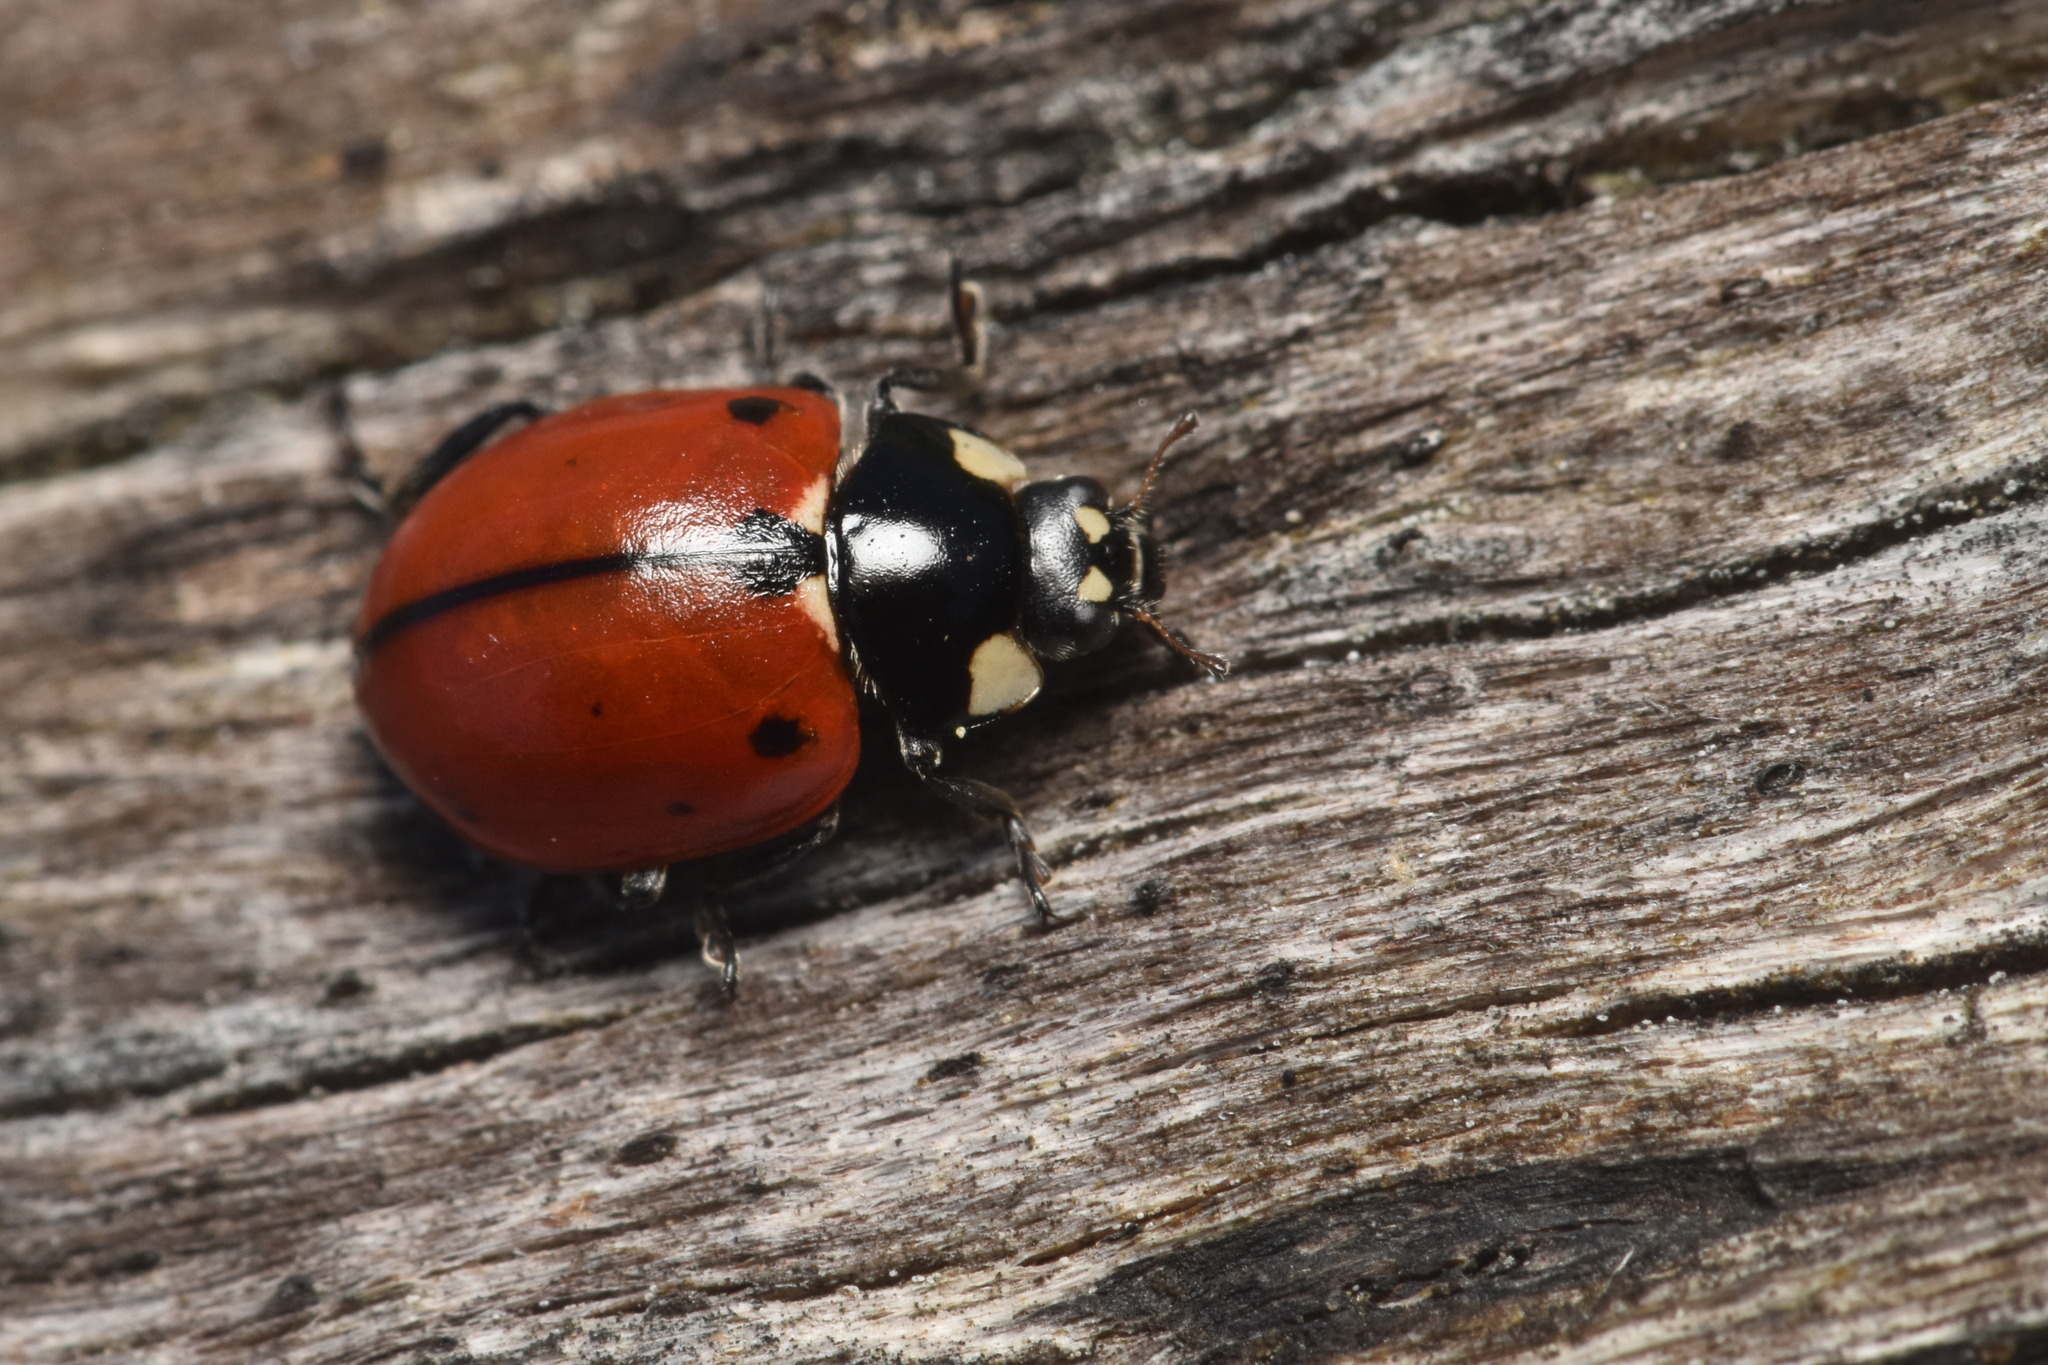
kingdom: Animalia
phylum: Arthropoda
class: Insecta
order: Coleoptera
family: Coccinellidae
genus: Coccinella
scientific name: Coccinella californica
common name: Lady beetle
